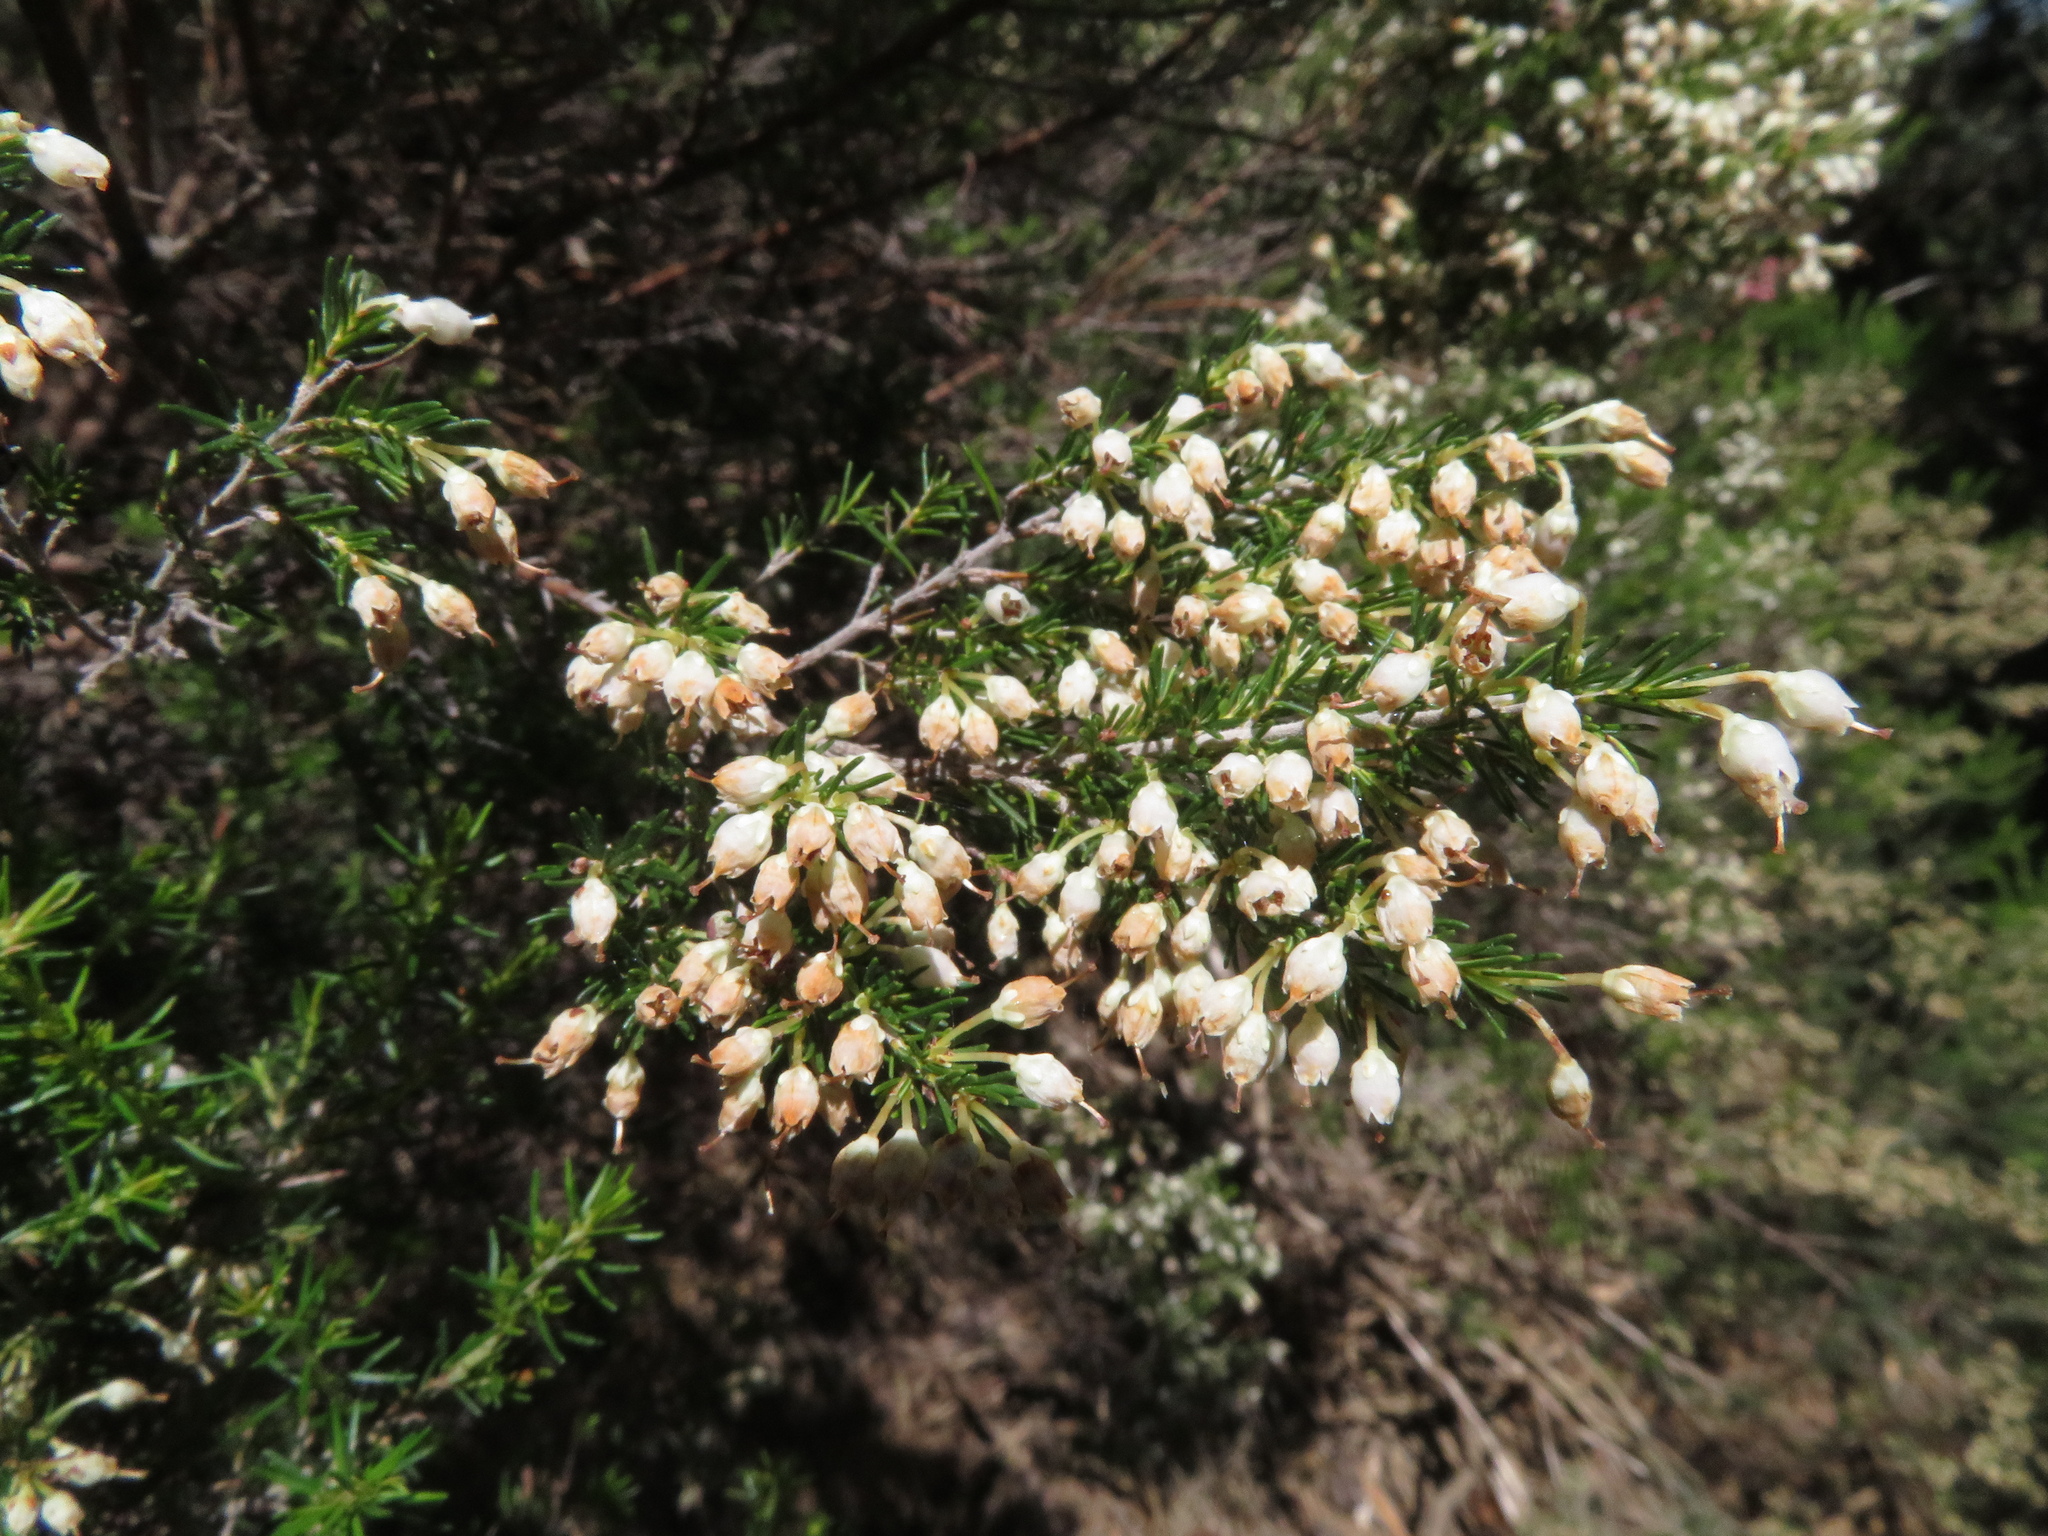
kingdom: Plantae
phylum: Tracheophyta
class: Magnoliopsida
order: Ericales
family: Ericaceae
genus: Erica
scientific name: Erica arborea
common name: Tree heath
